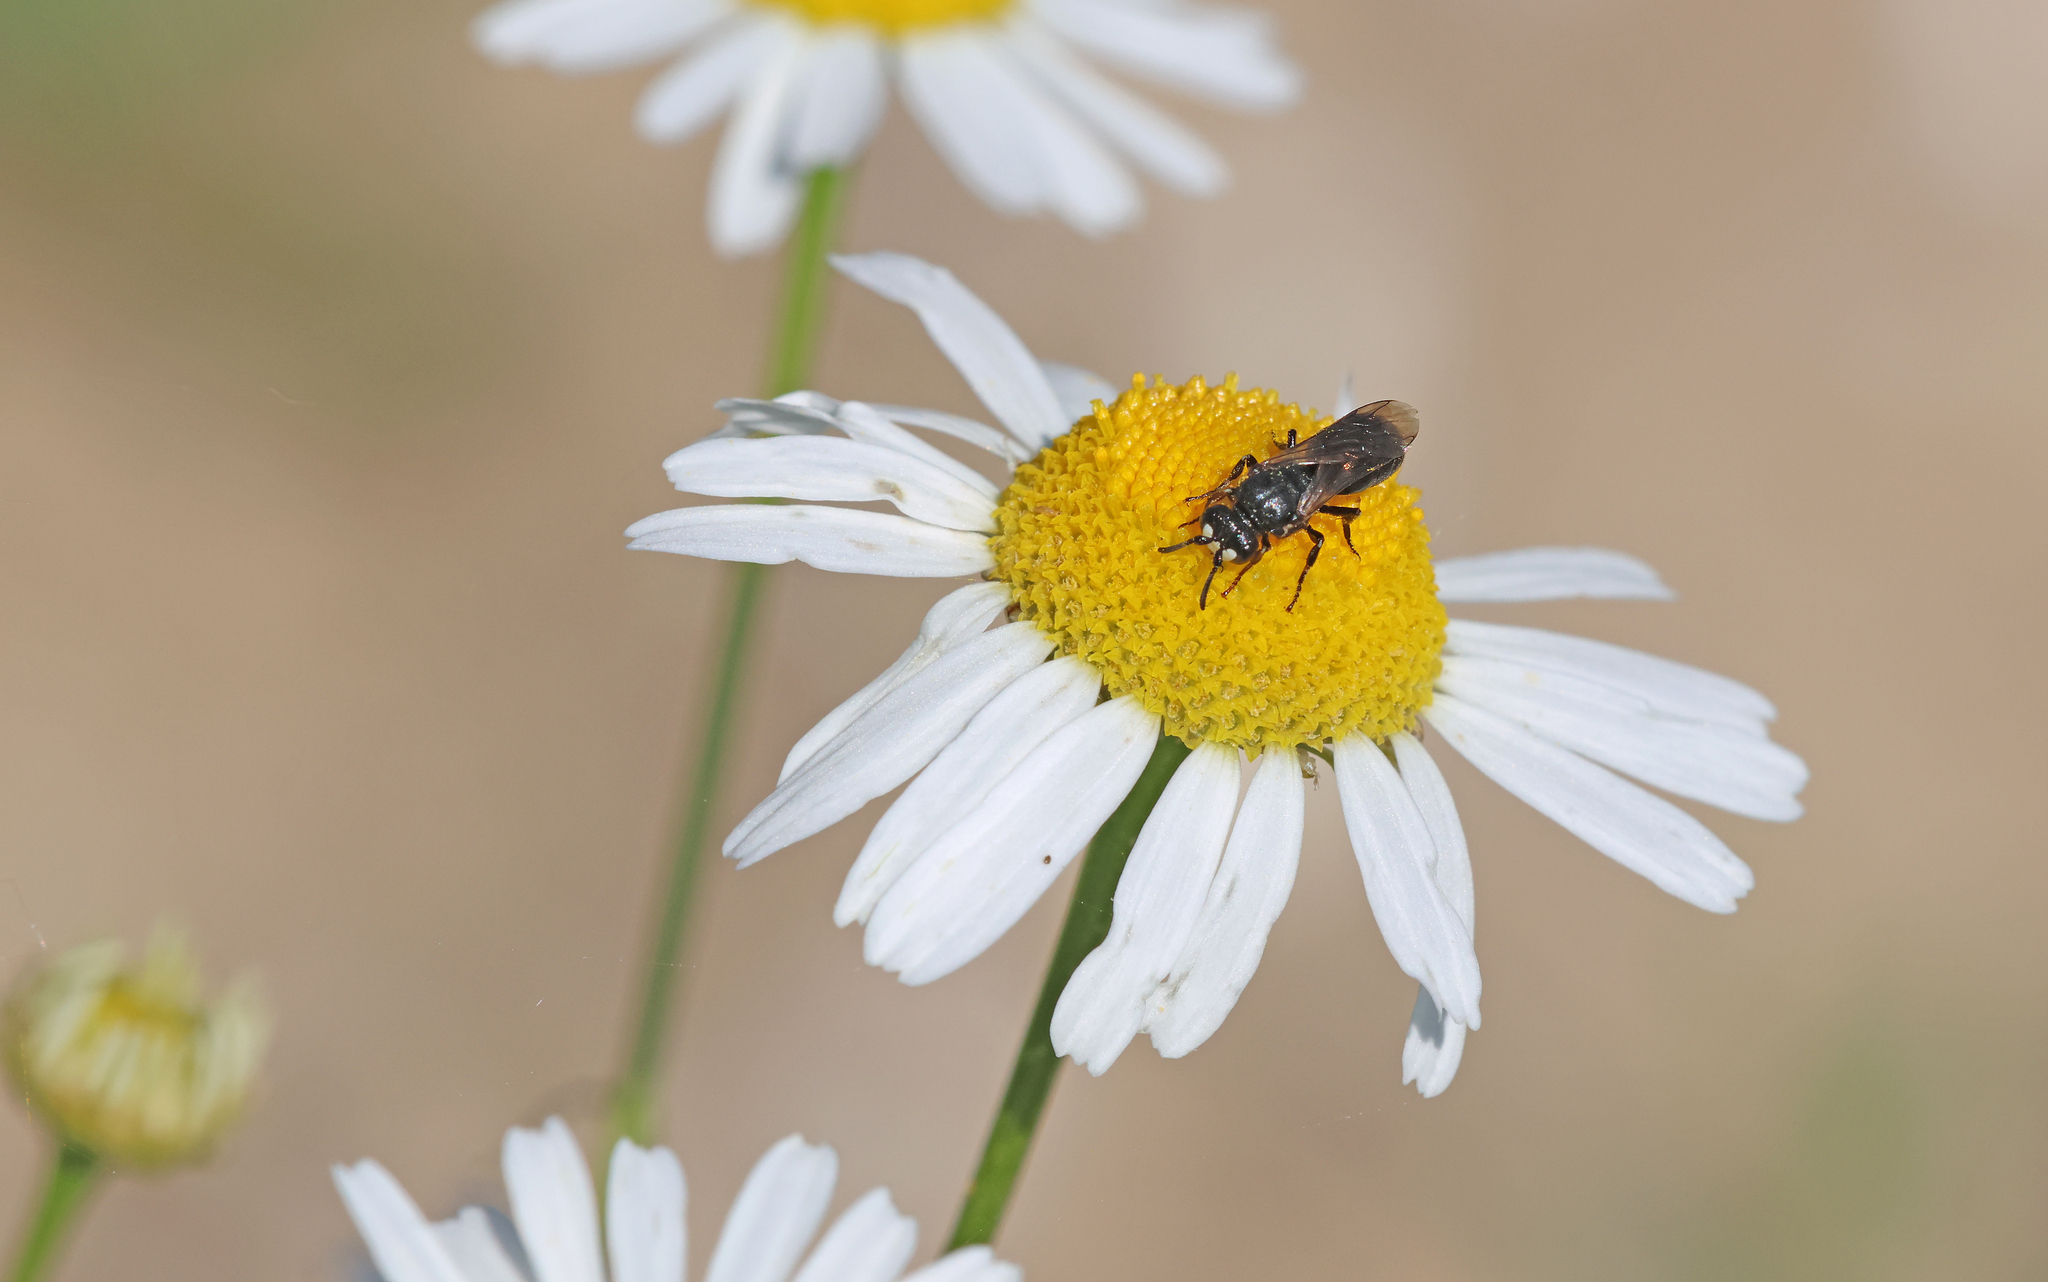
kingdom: Animalia
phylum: Arthropoda
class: Insecta
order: Hymenoptera
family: Colletidae
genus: Hylaeus
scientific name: Hylaeus nigritus
